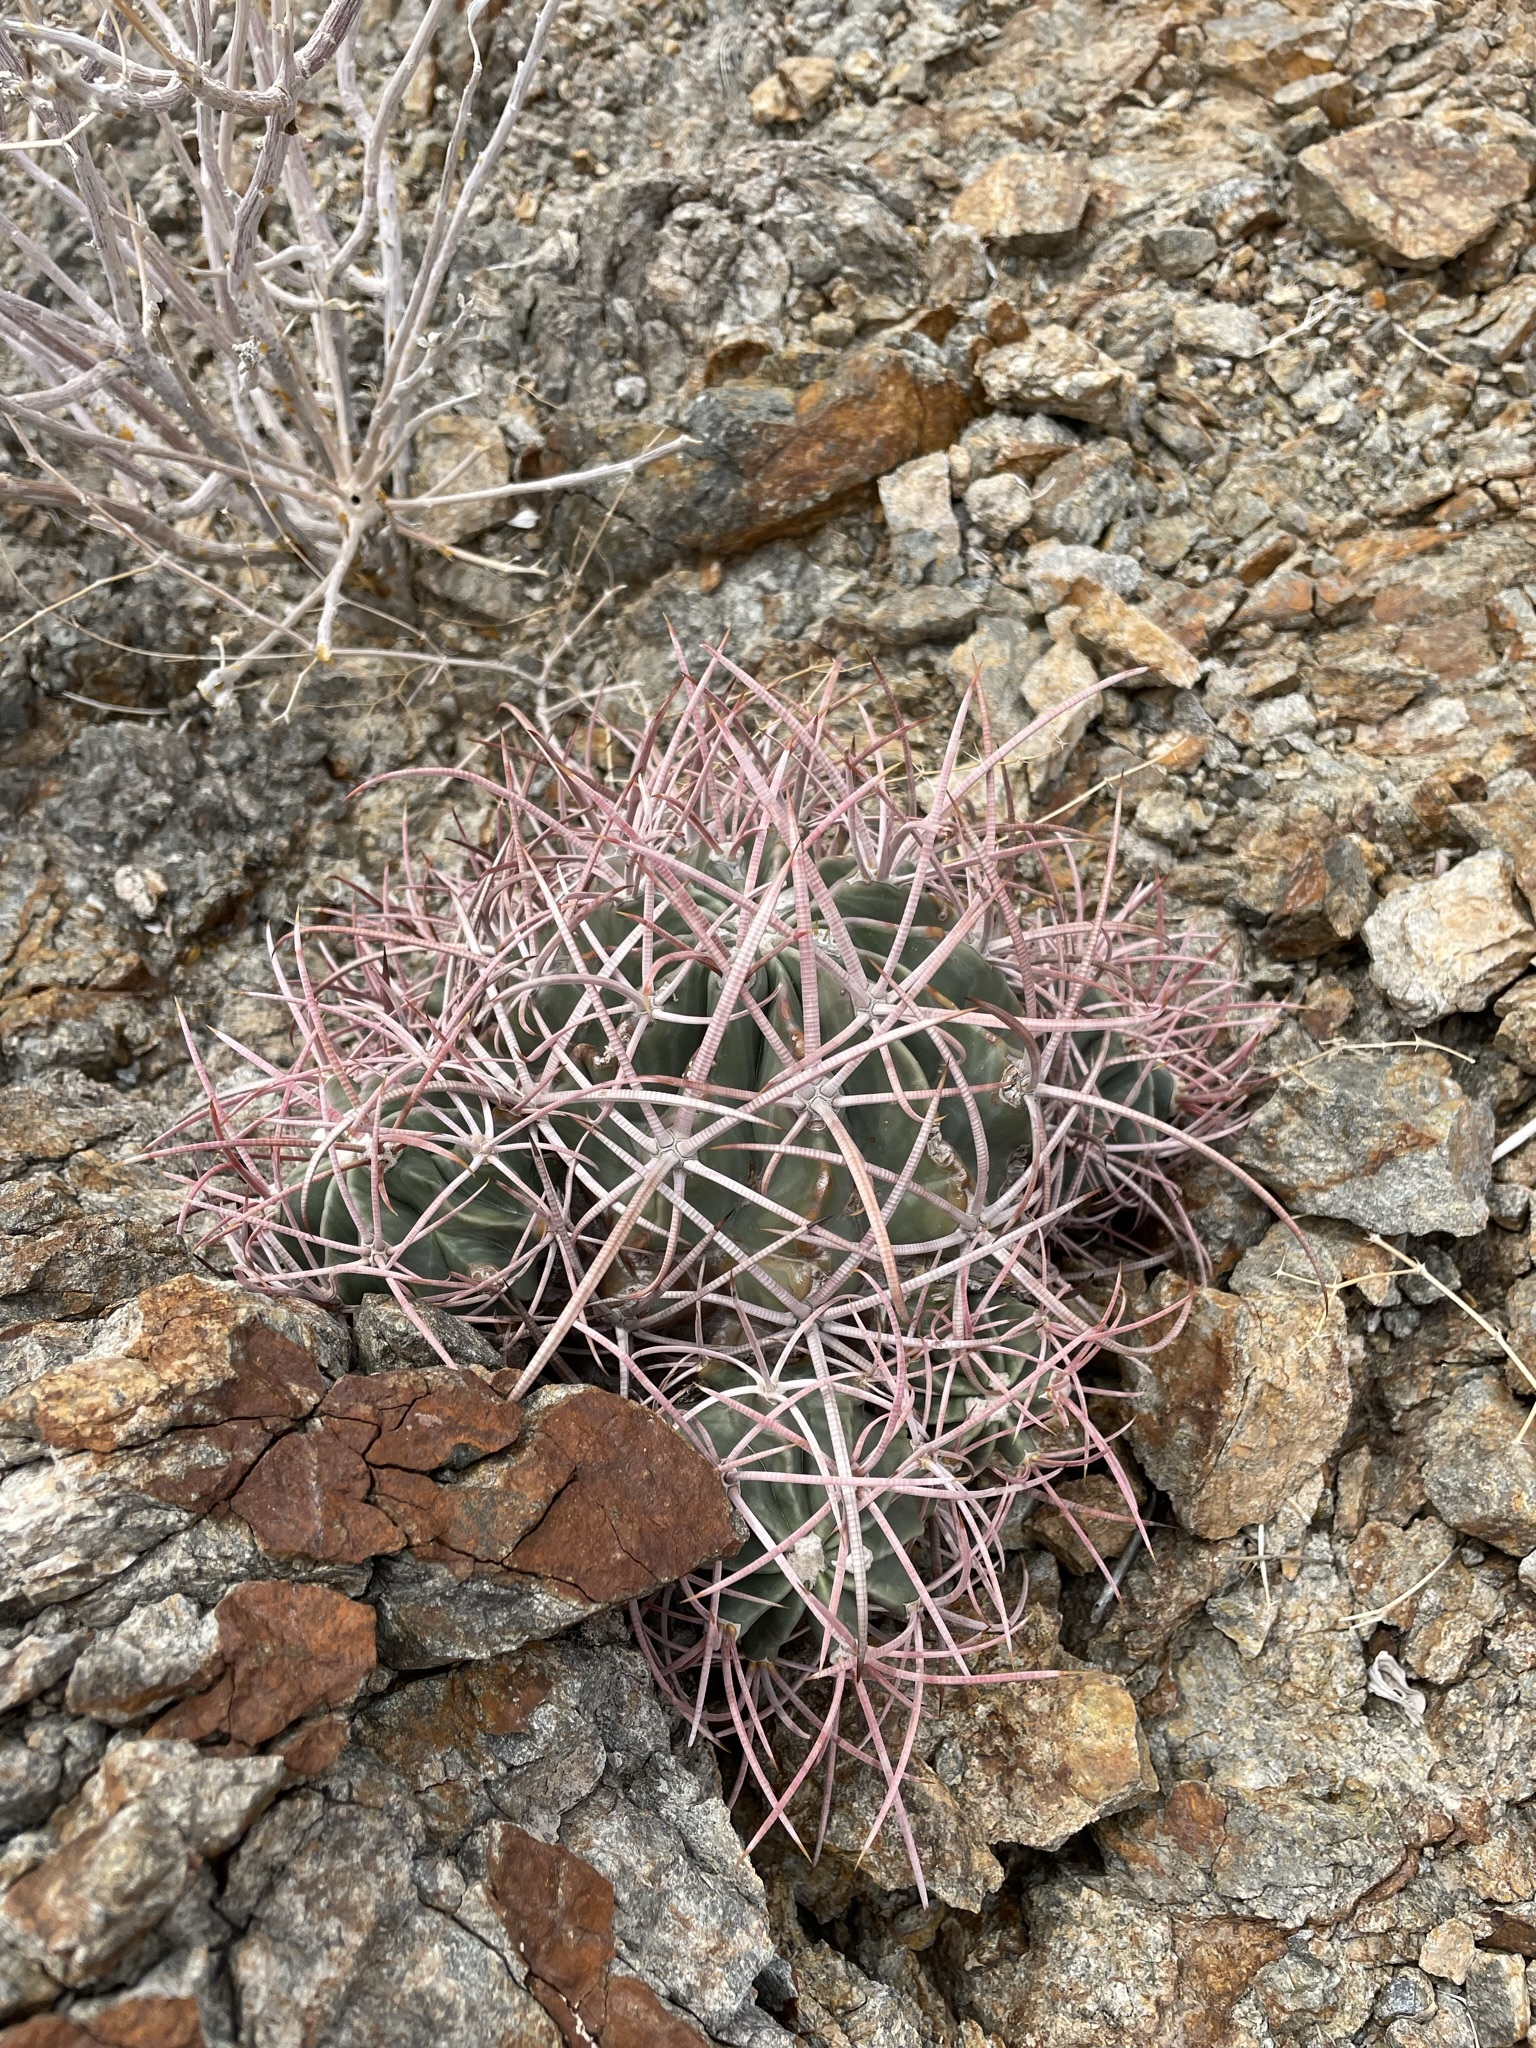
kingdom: Plantae
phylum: Tracheophyta
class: Magnoliopsida
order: Caryophyllales
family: Cactaceae
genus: Echinocactus
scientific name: Echinocactus polycephalus
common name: Cottontop cactus
